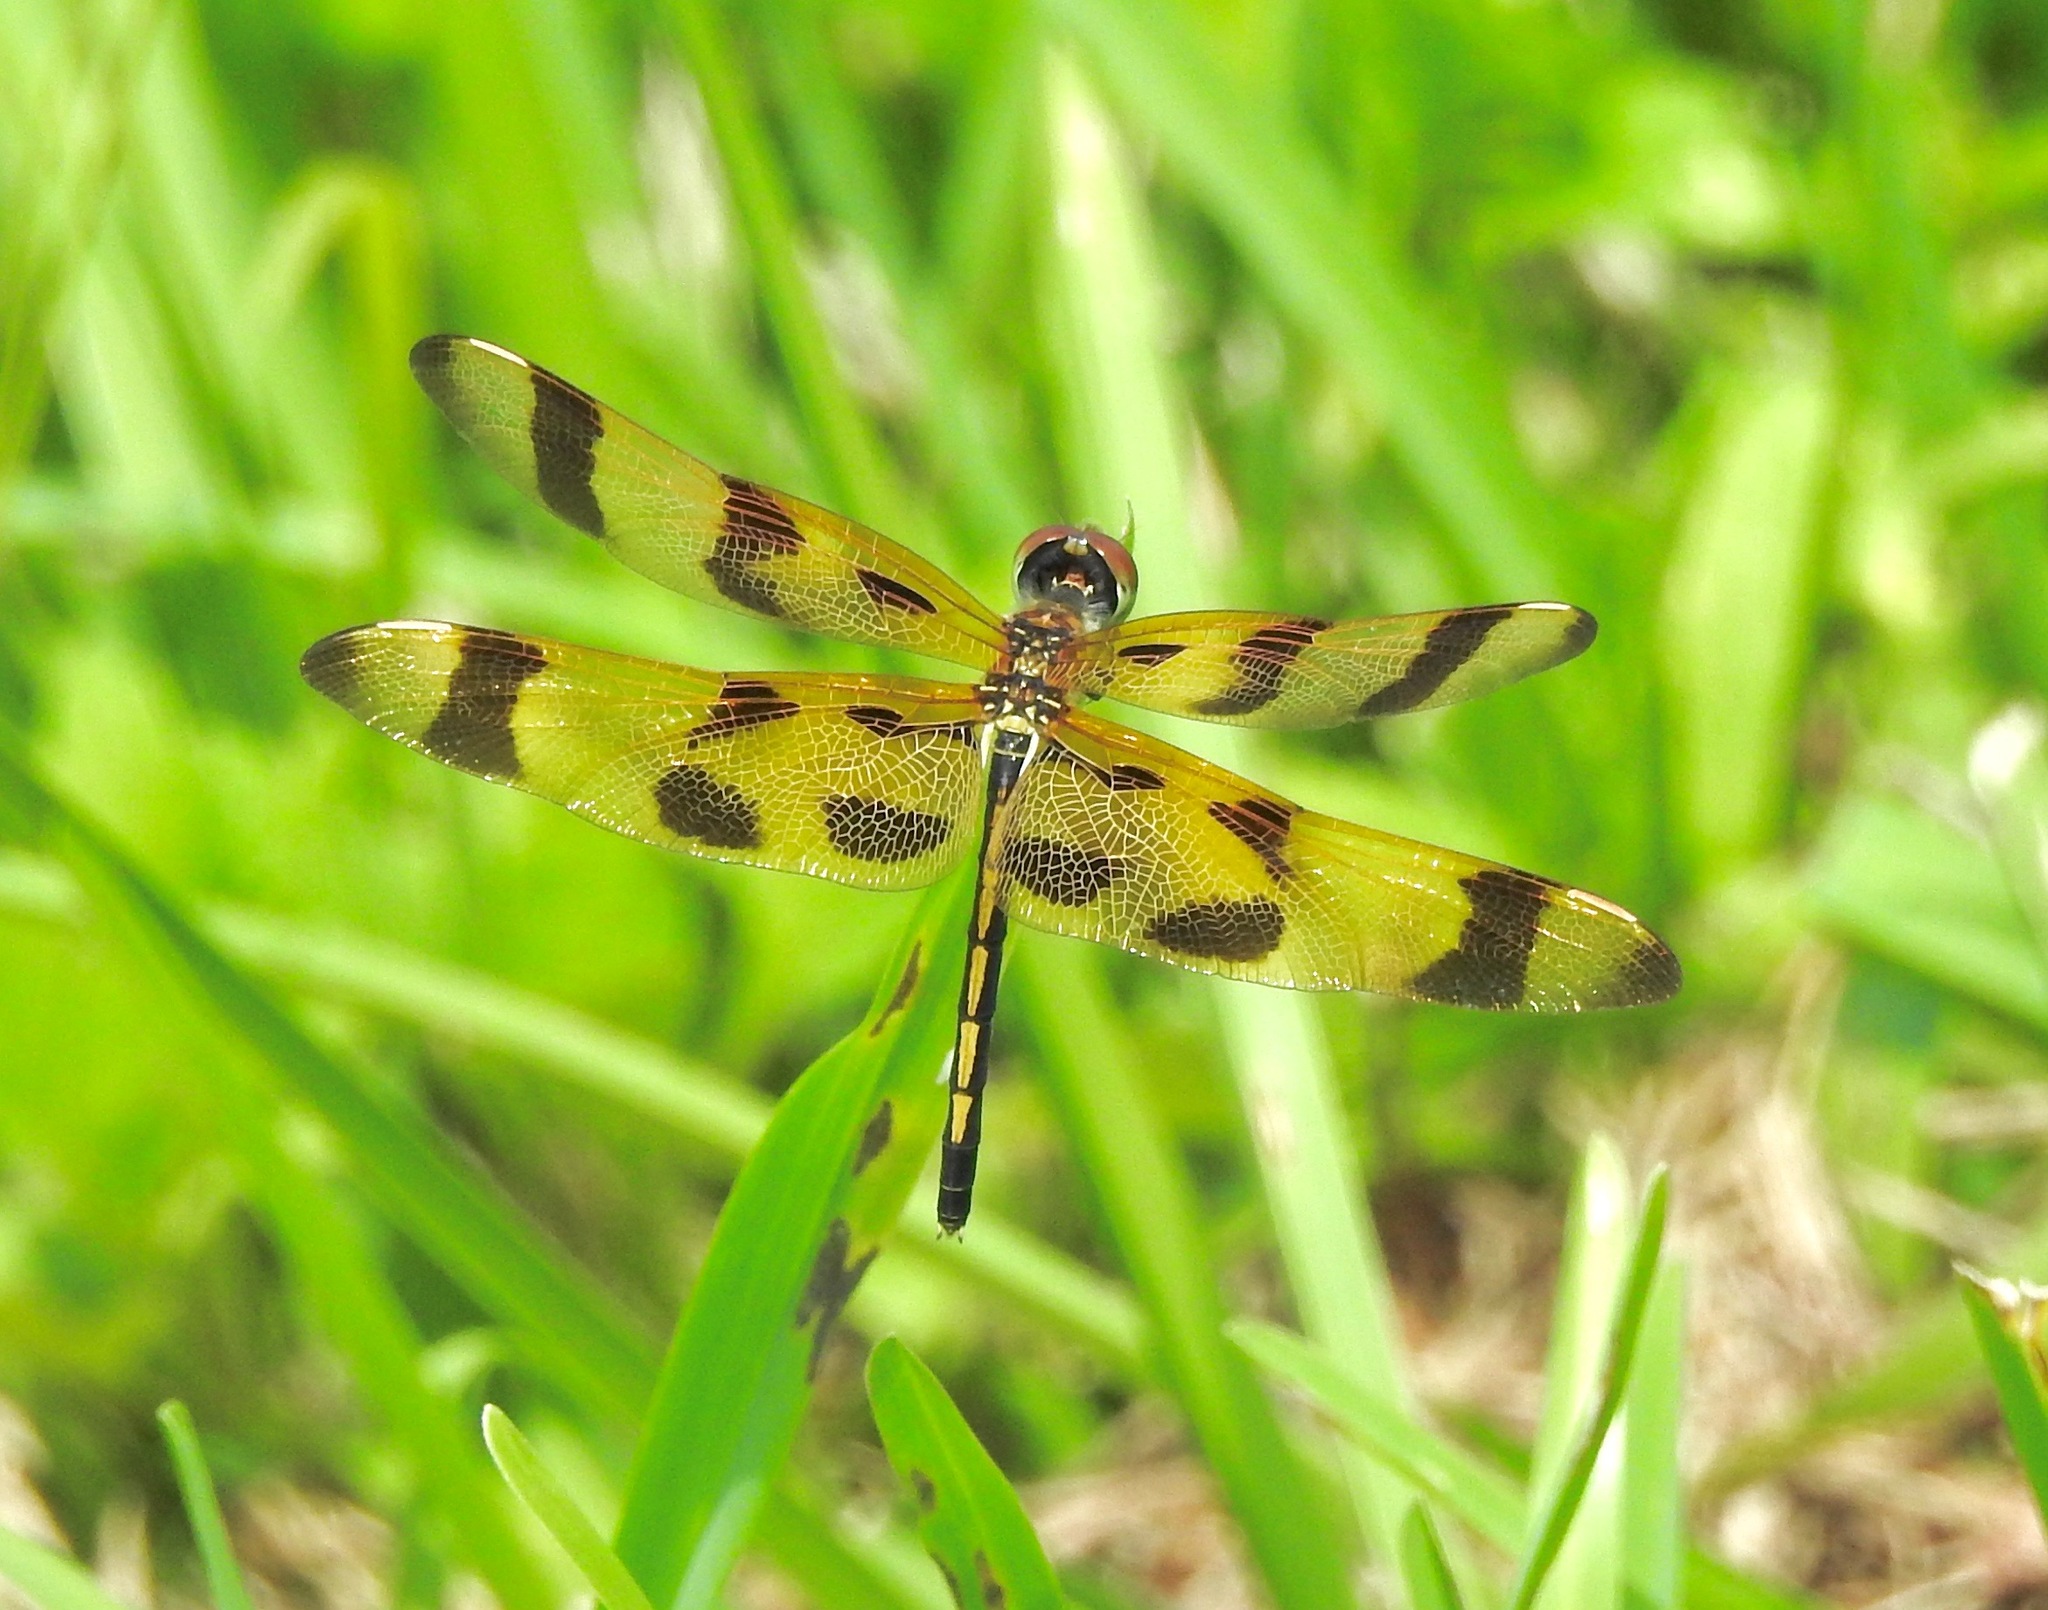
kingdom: Animalia
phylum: Arthropoda
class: Insecta
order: Odonata
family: Libellulidae
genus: Celithemis
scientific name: Celithemis eponina
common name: Halloween pennant
